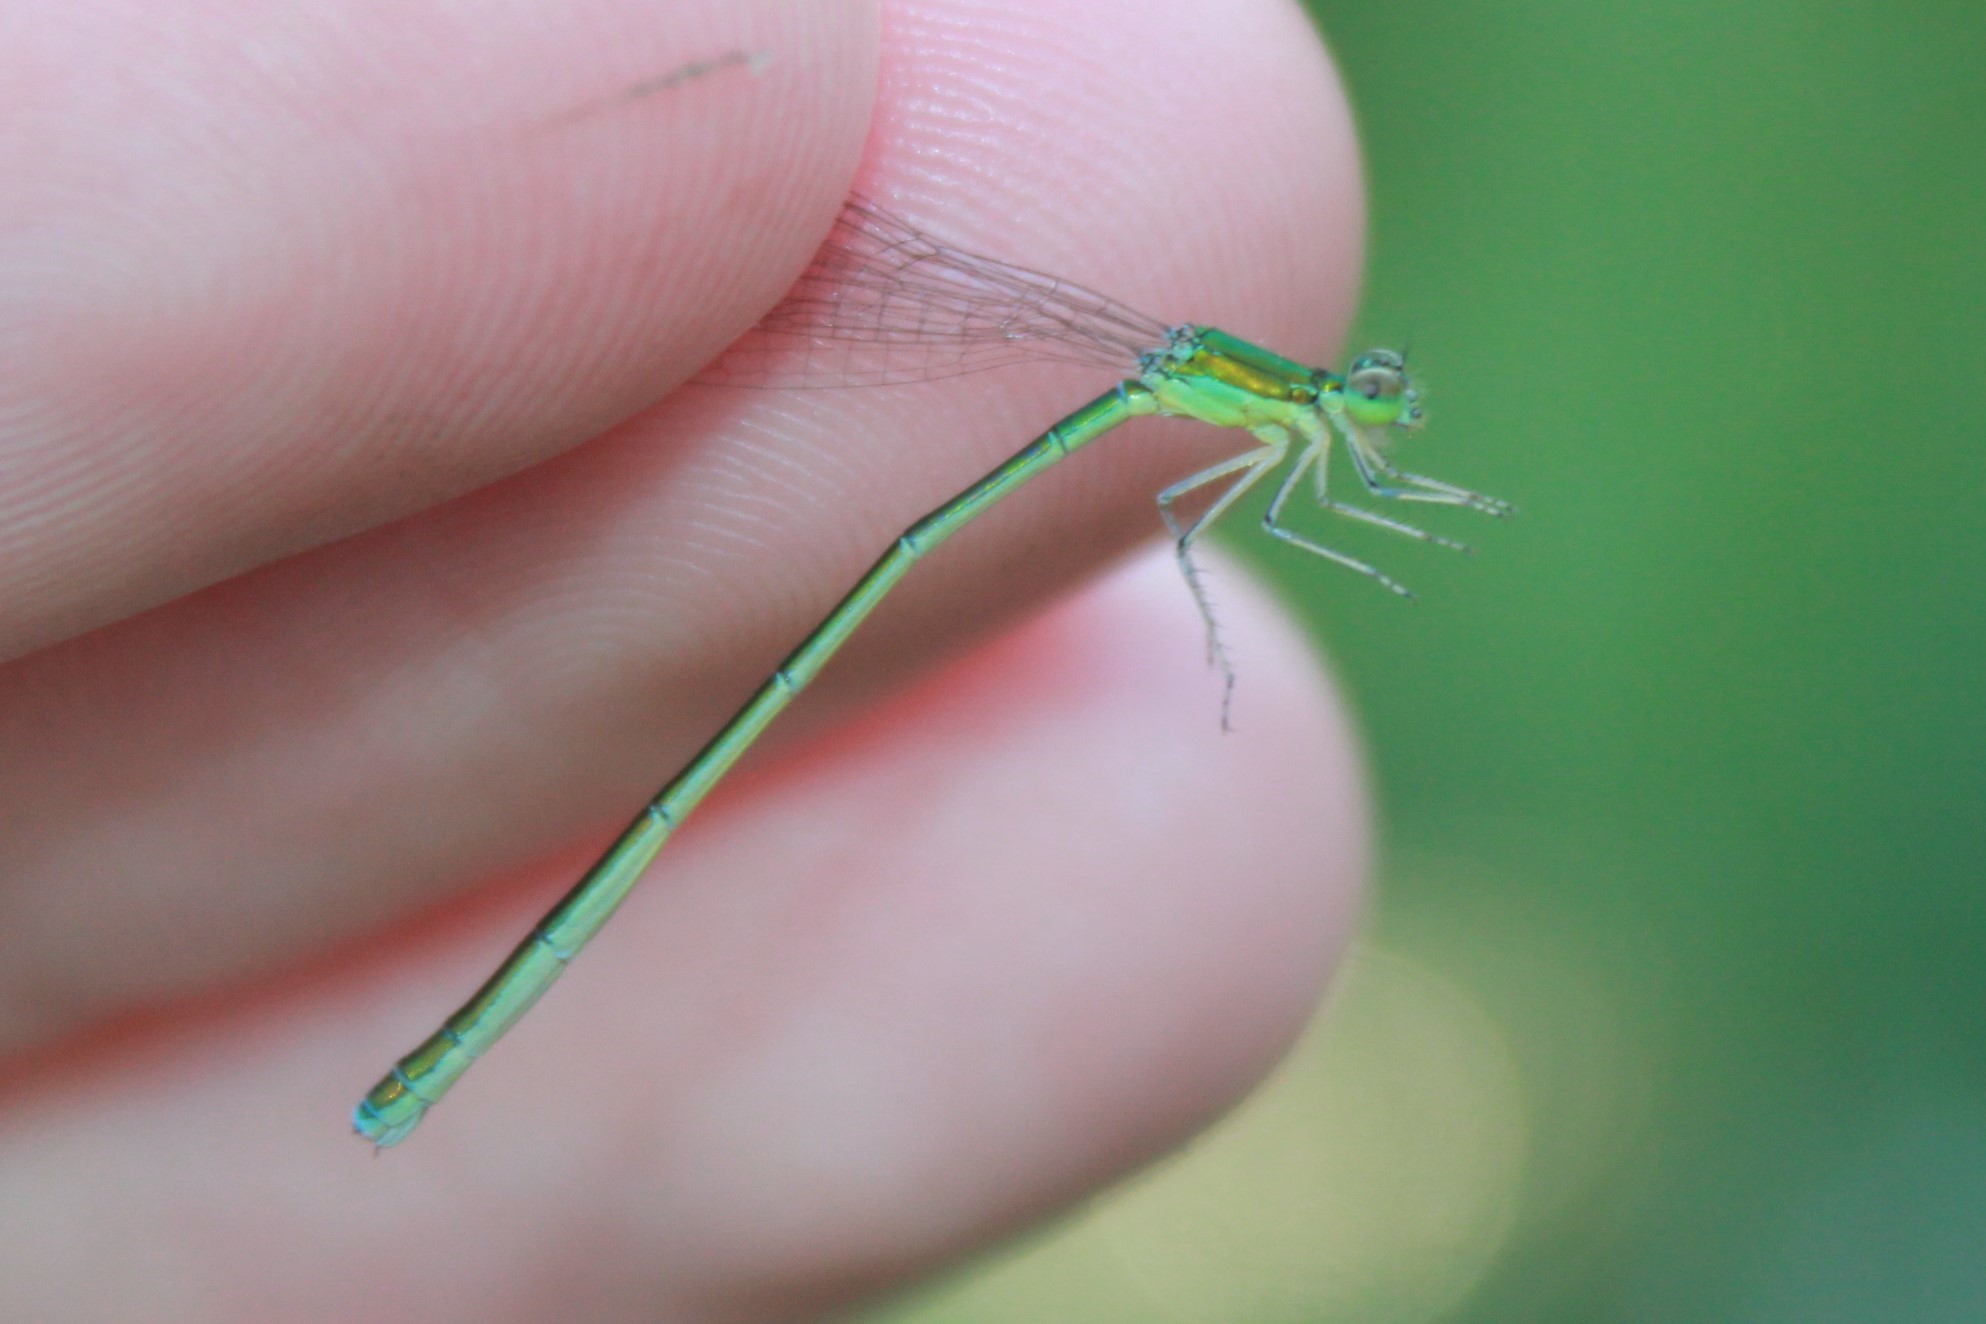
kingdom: Animalia
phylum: Arthropoda
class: Insecta
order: Odonata
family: Coenagrionidae
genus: Nehalennia
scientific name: Nehalennia irene
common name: Sedge sprite
